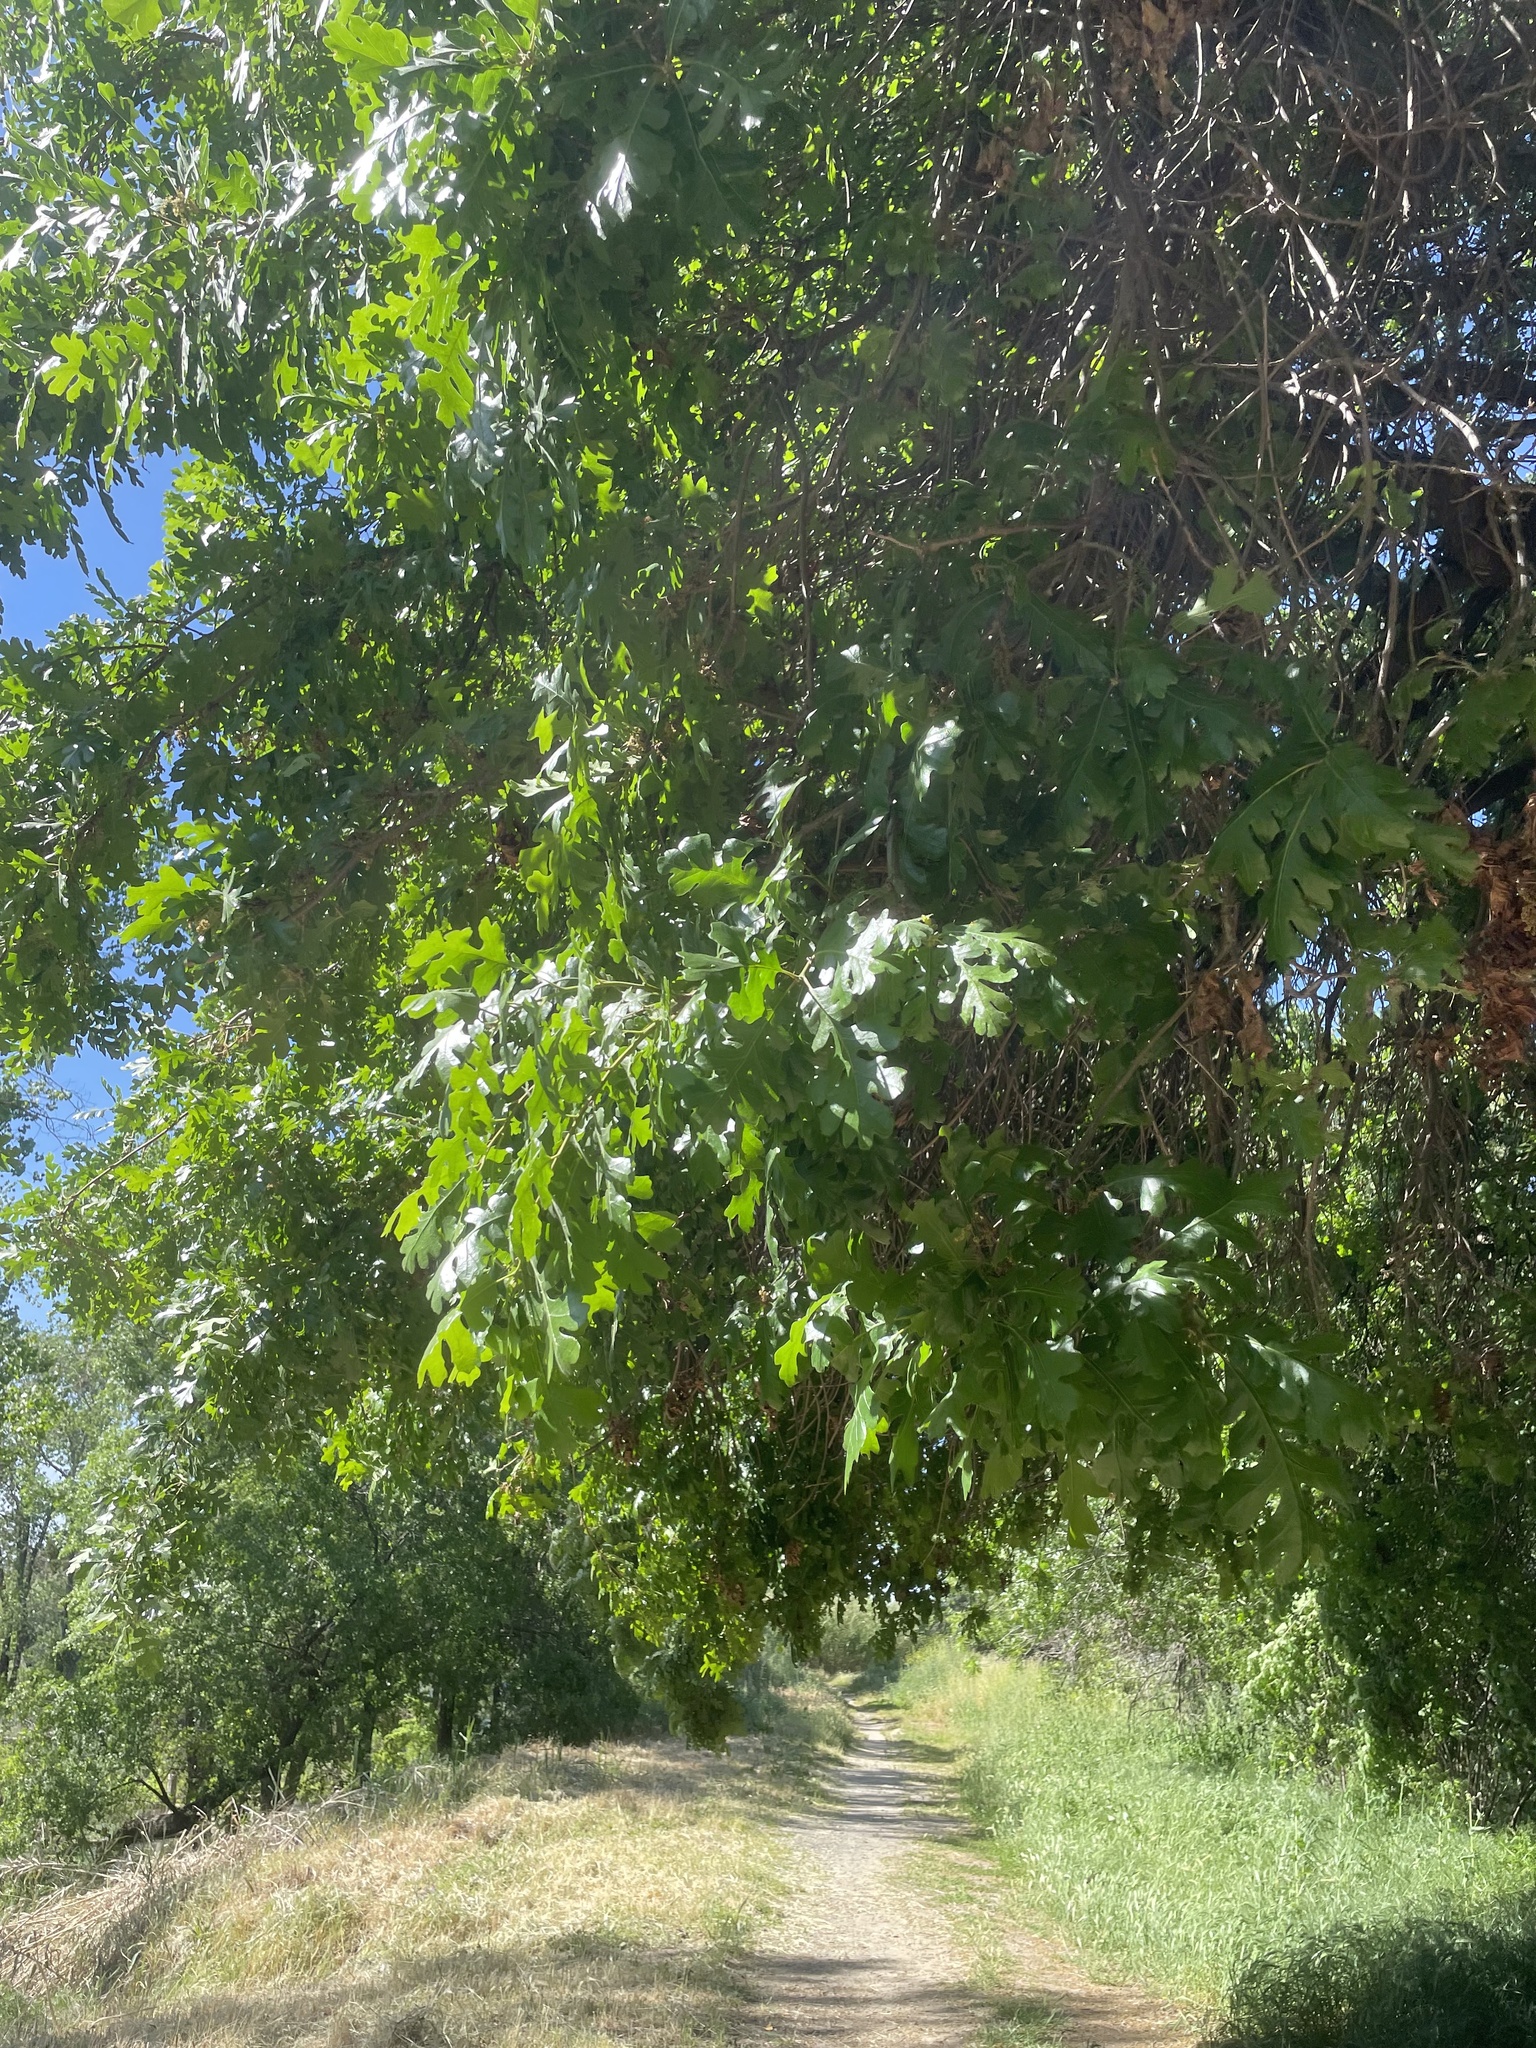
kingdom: Plantae
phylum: Tracheophyta
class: Magnoliopsida
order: Fagales
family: Fagaceae
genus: Quercus
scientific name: Quercus lobata
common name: Valley oak
